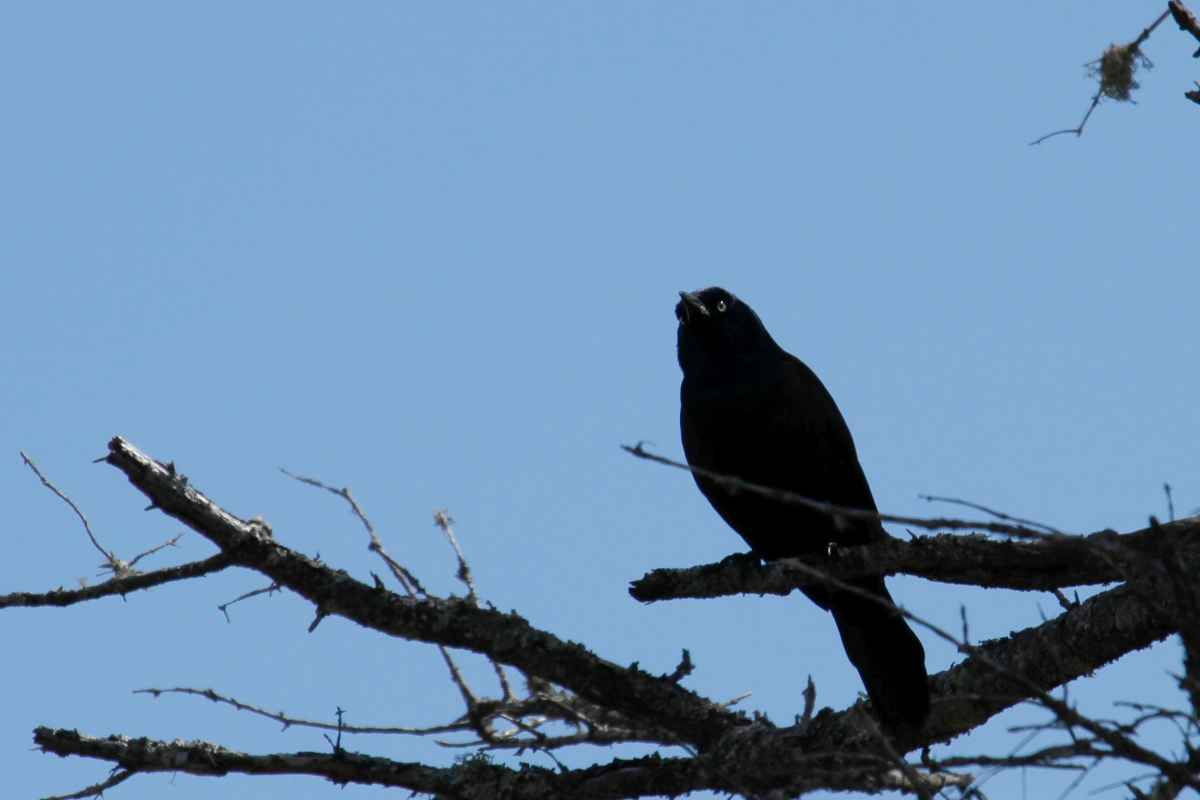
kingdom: Animalia
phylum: Chordata
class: Aves
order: Passeriformes
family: Icteridae
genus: Quiscalus
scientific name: Quiscalus quiscula
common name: Common grackle
